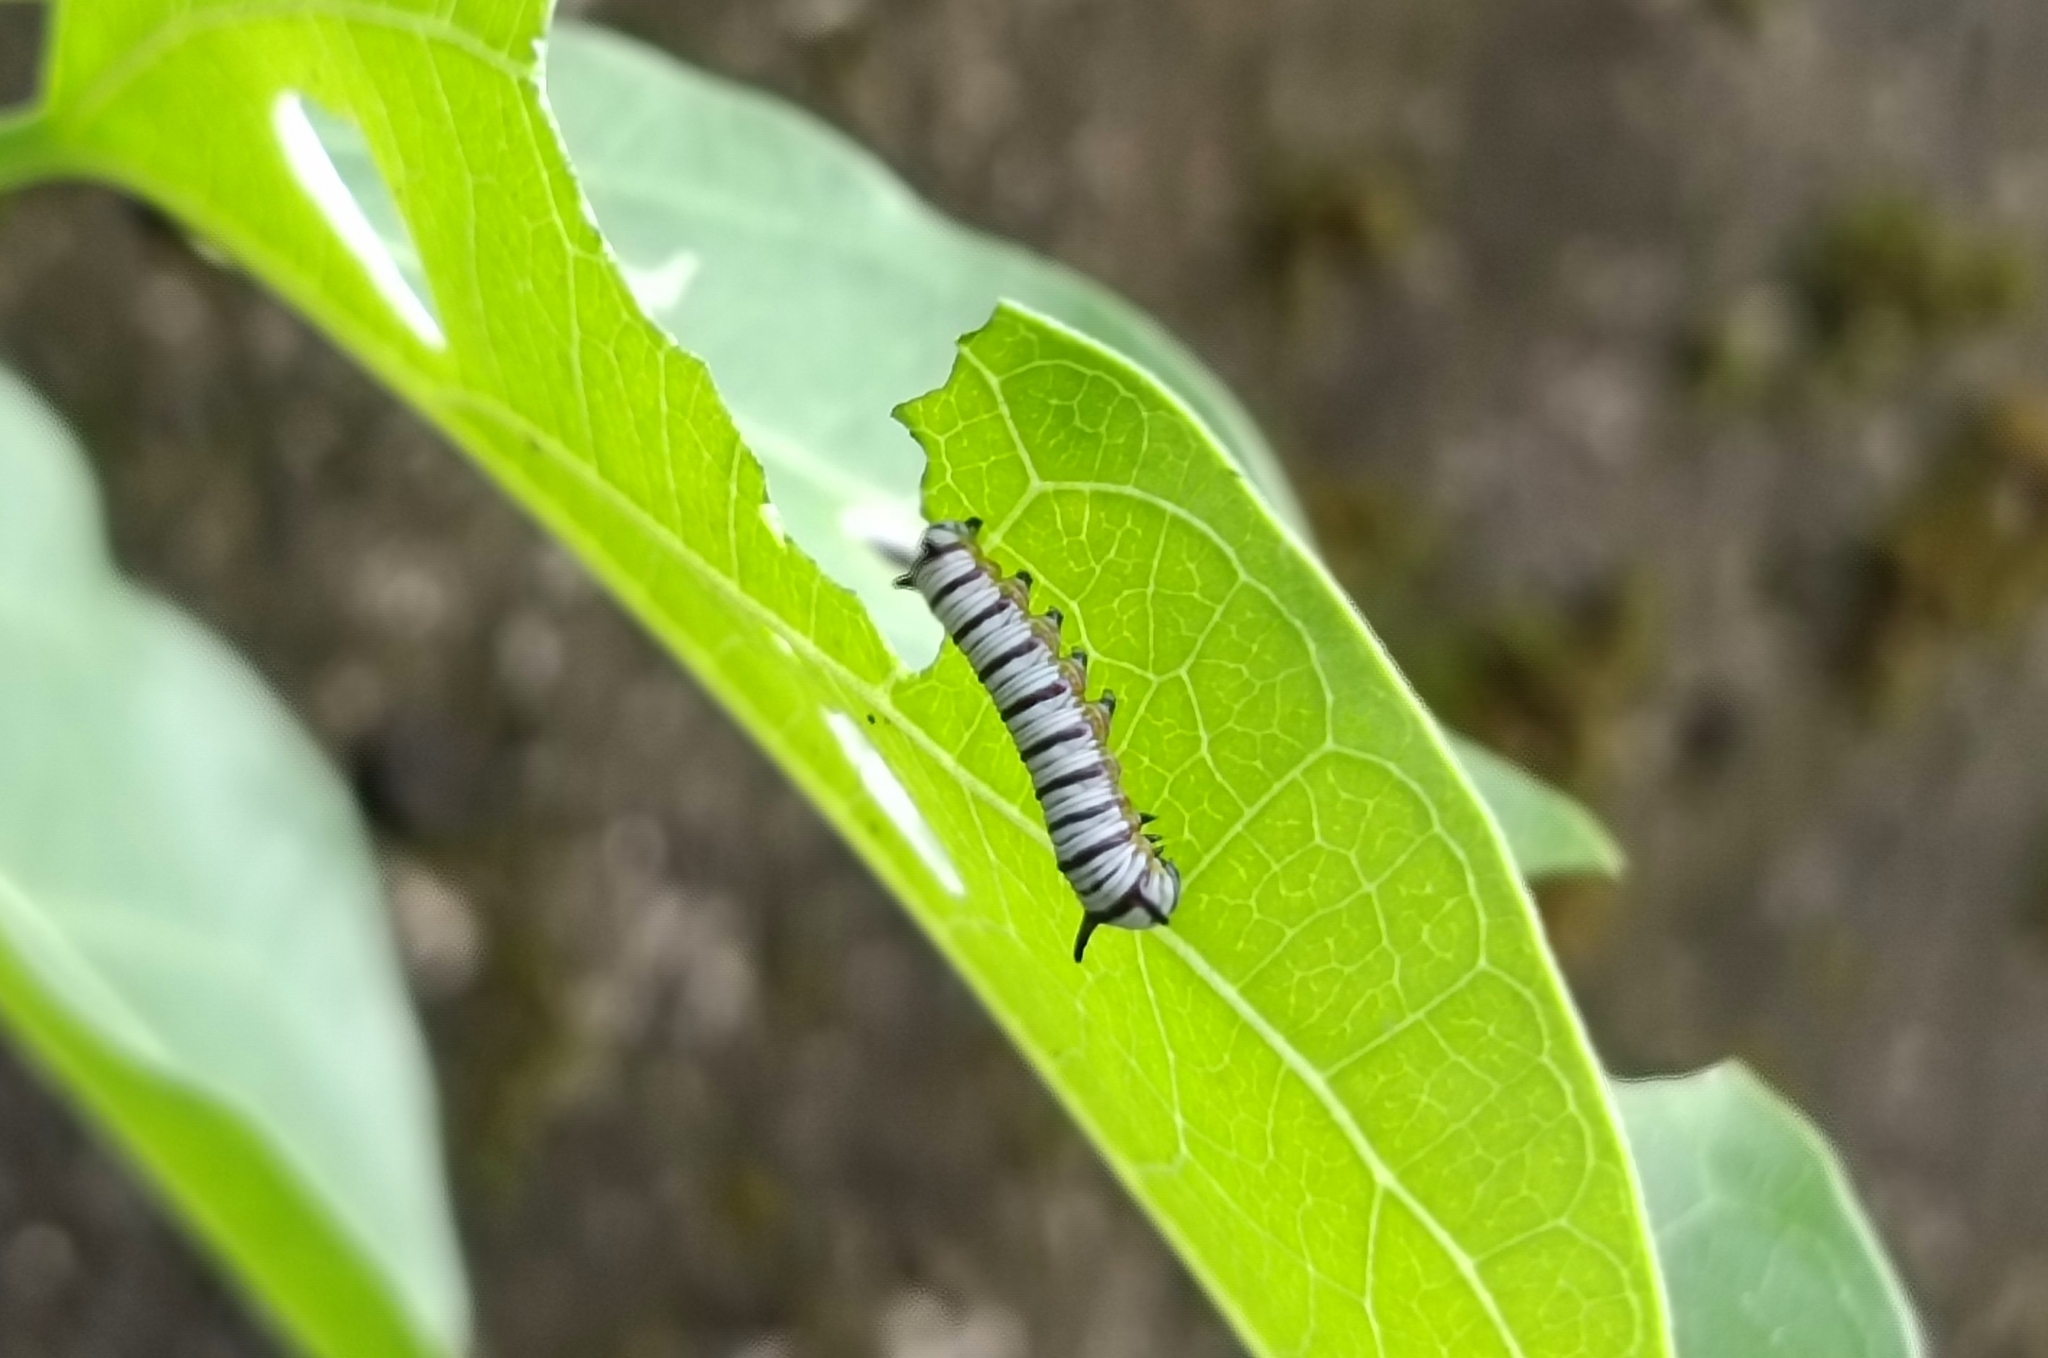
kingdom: Animalia
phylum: Arthropoda
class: Insecta
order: Lepidoptera
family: Nymphalidae
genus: Tirumala
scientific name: Tirumala limniace
